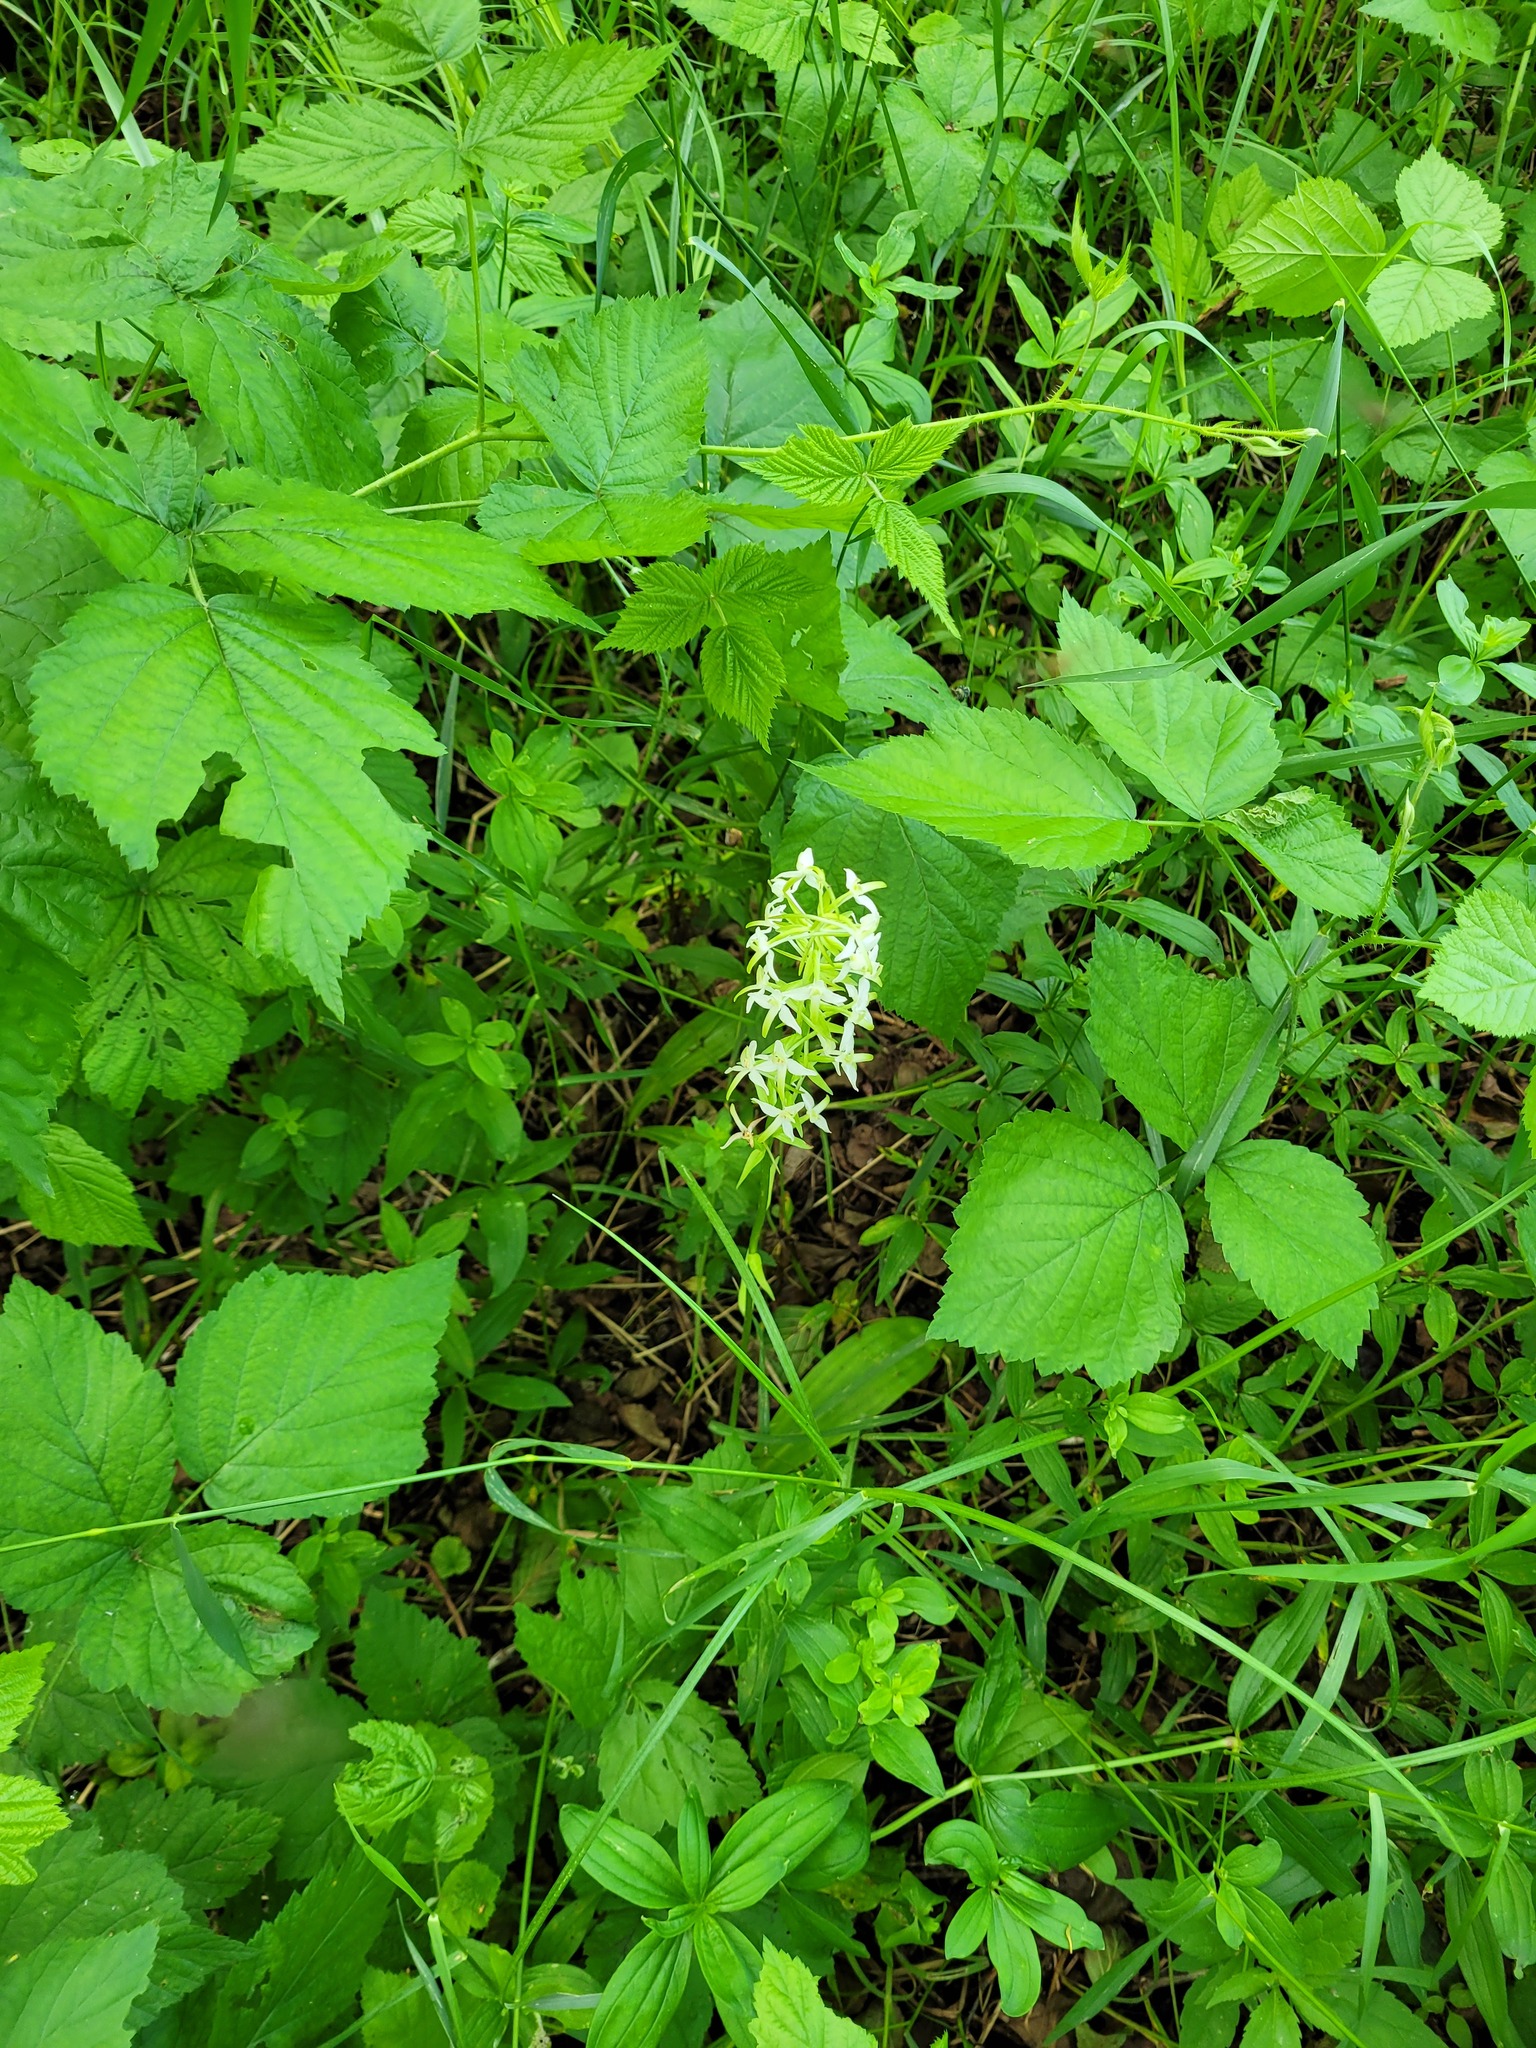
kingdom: Plantae
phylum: Tracheophyta
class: Liliopsida
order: Asparagales
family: Orchidaceae
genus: Platanthera
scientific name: Platanthera bifolia
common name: Lesser butterfly-orchid
